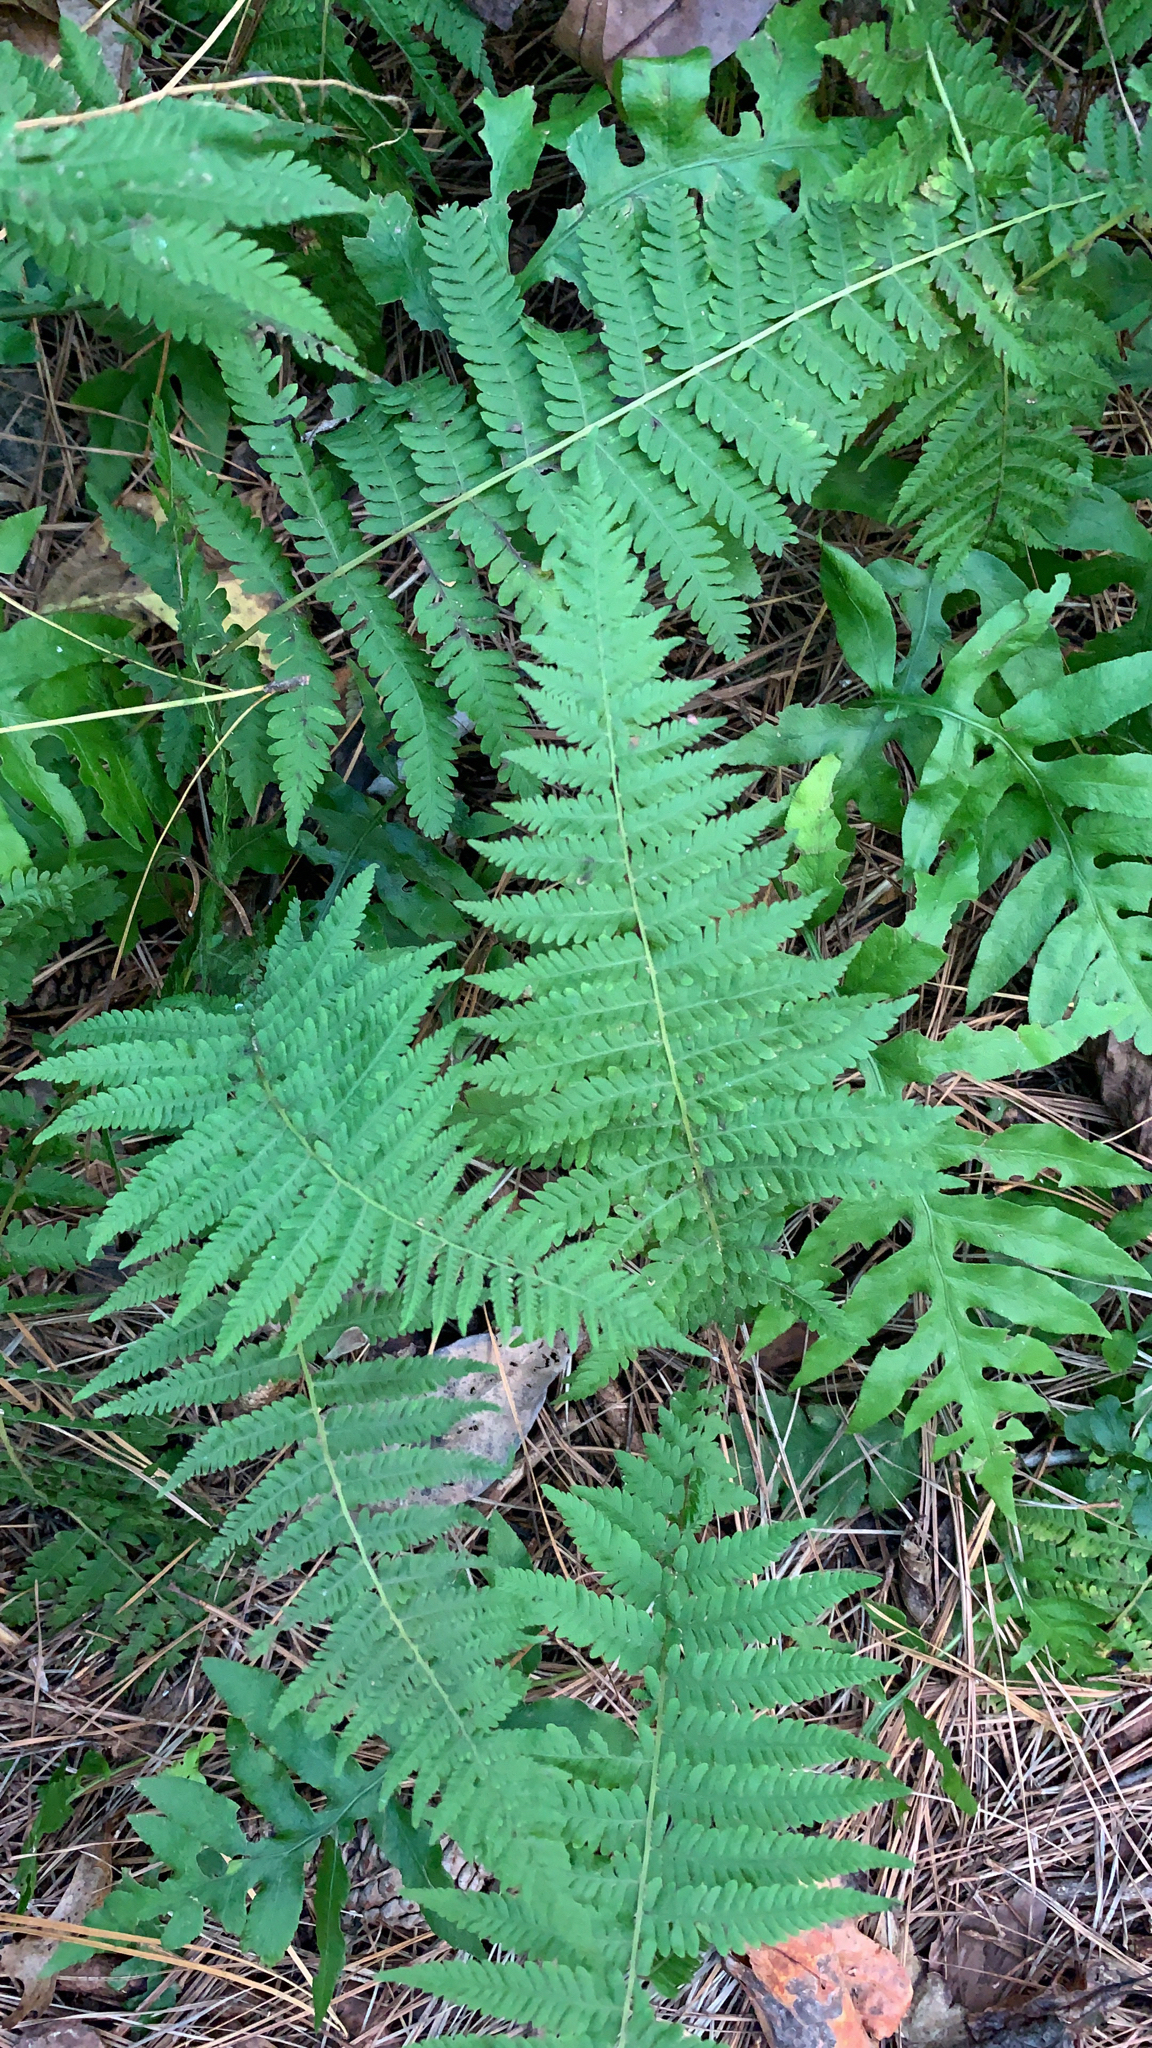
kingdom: Plantae
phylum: Tracheophyta
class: Polypodiopsida
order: Polypodiales
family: Thelypteridaceae
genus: Amauropelta
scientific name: Amauropelta noveboracensis
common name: New york fern
